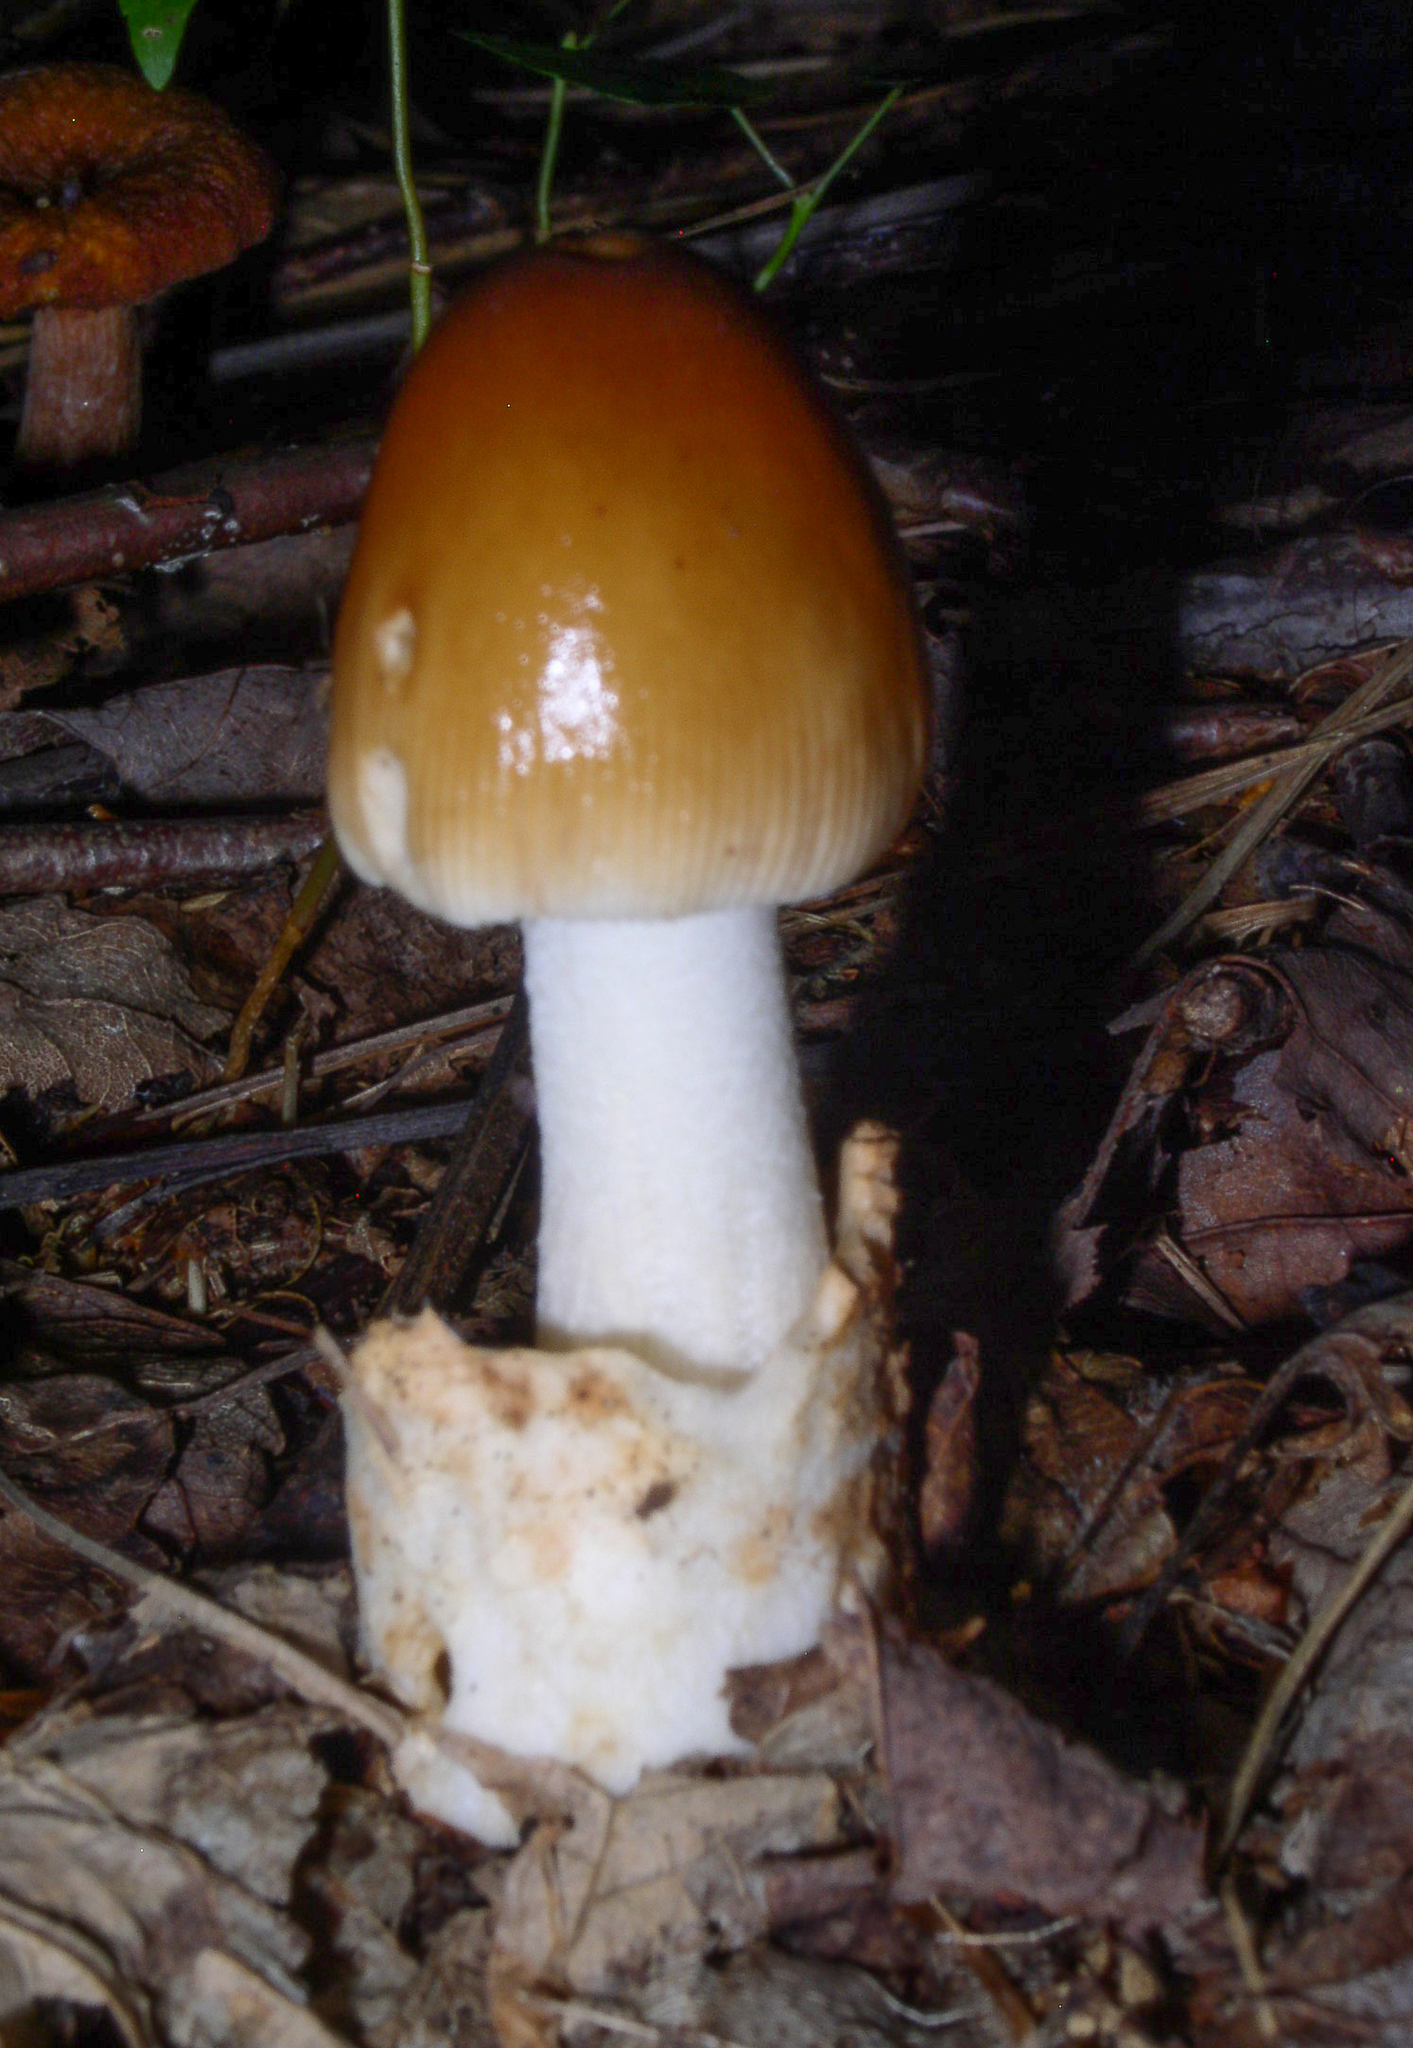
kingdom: Fungi
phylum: Basidiomycota
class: Agaricomycetes
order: Agaricales
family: Amanitaceae
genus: Amanita
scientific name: Amanita fulva
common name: Tawny grisette
